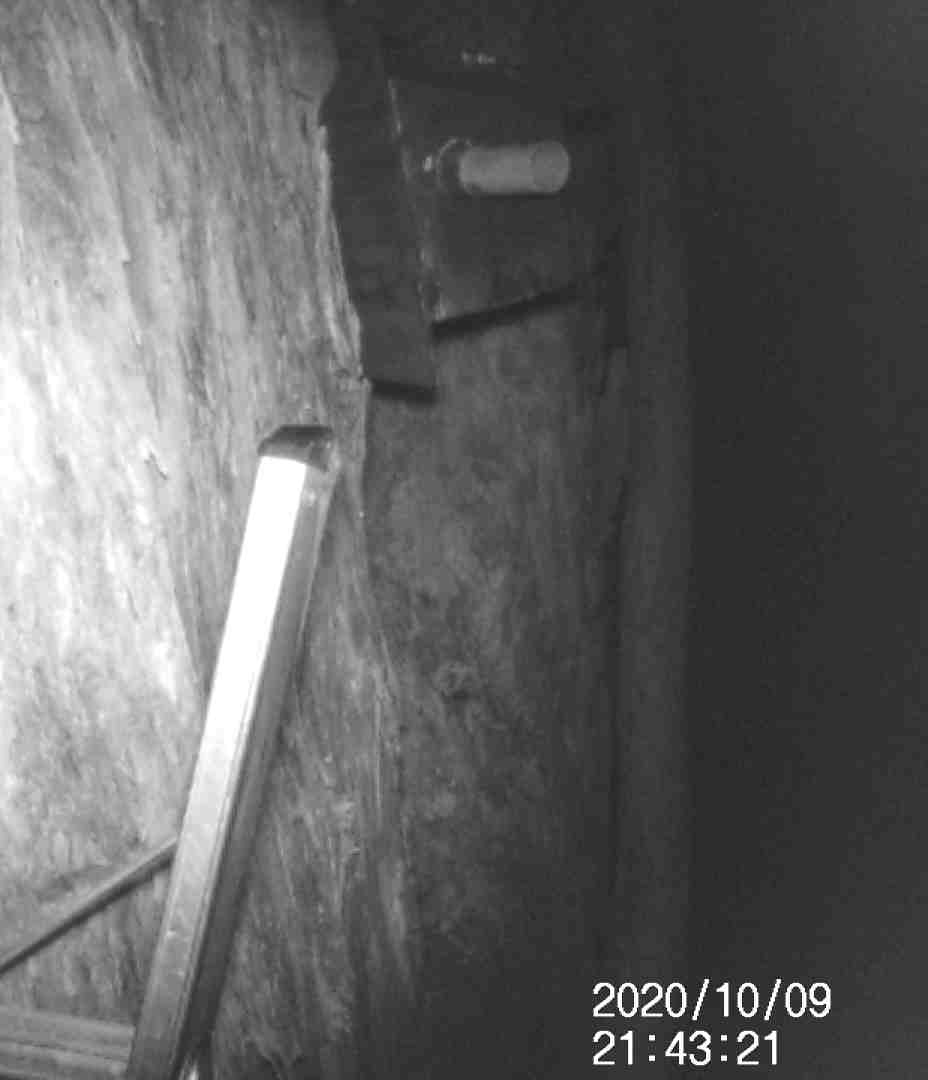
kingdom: Animalia
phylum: Chordata
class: Mammalia
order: Dasyuromorphia
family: Dasyuridae
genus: Antechinus
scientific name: Antechinus agilis
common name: Agile antechinus
